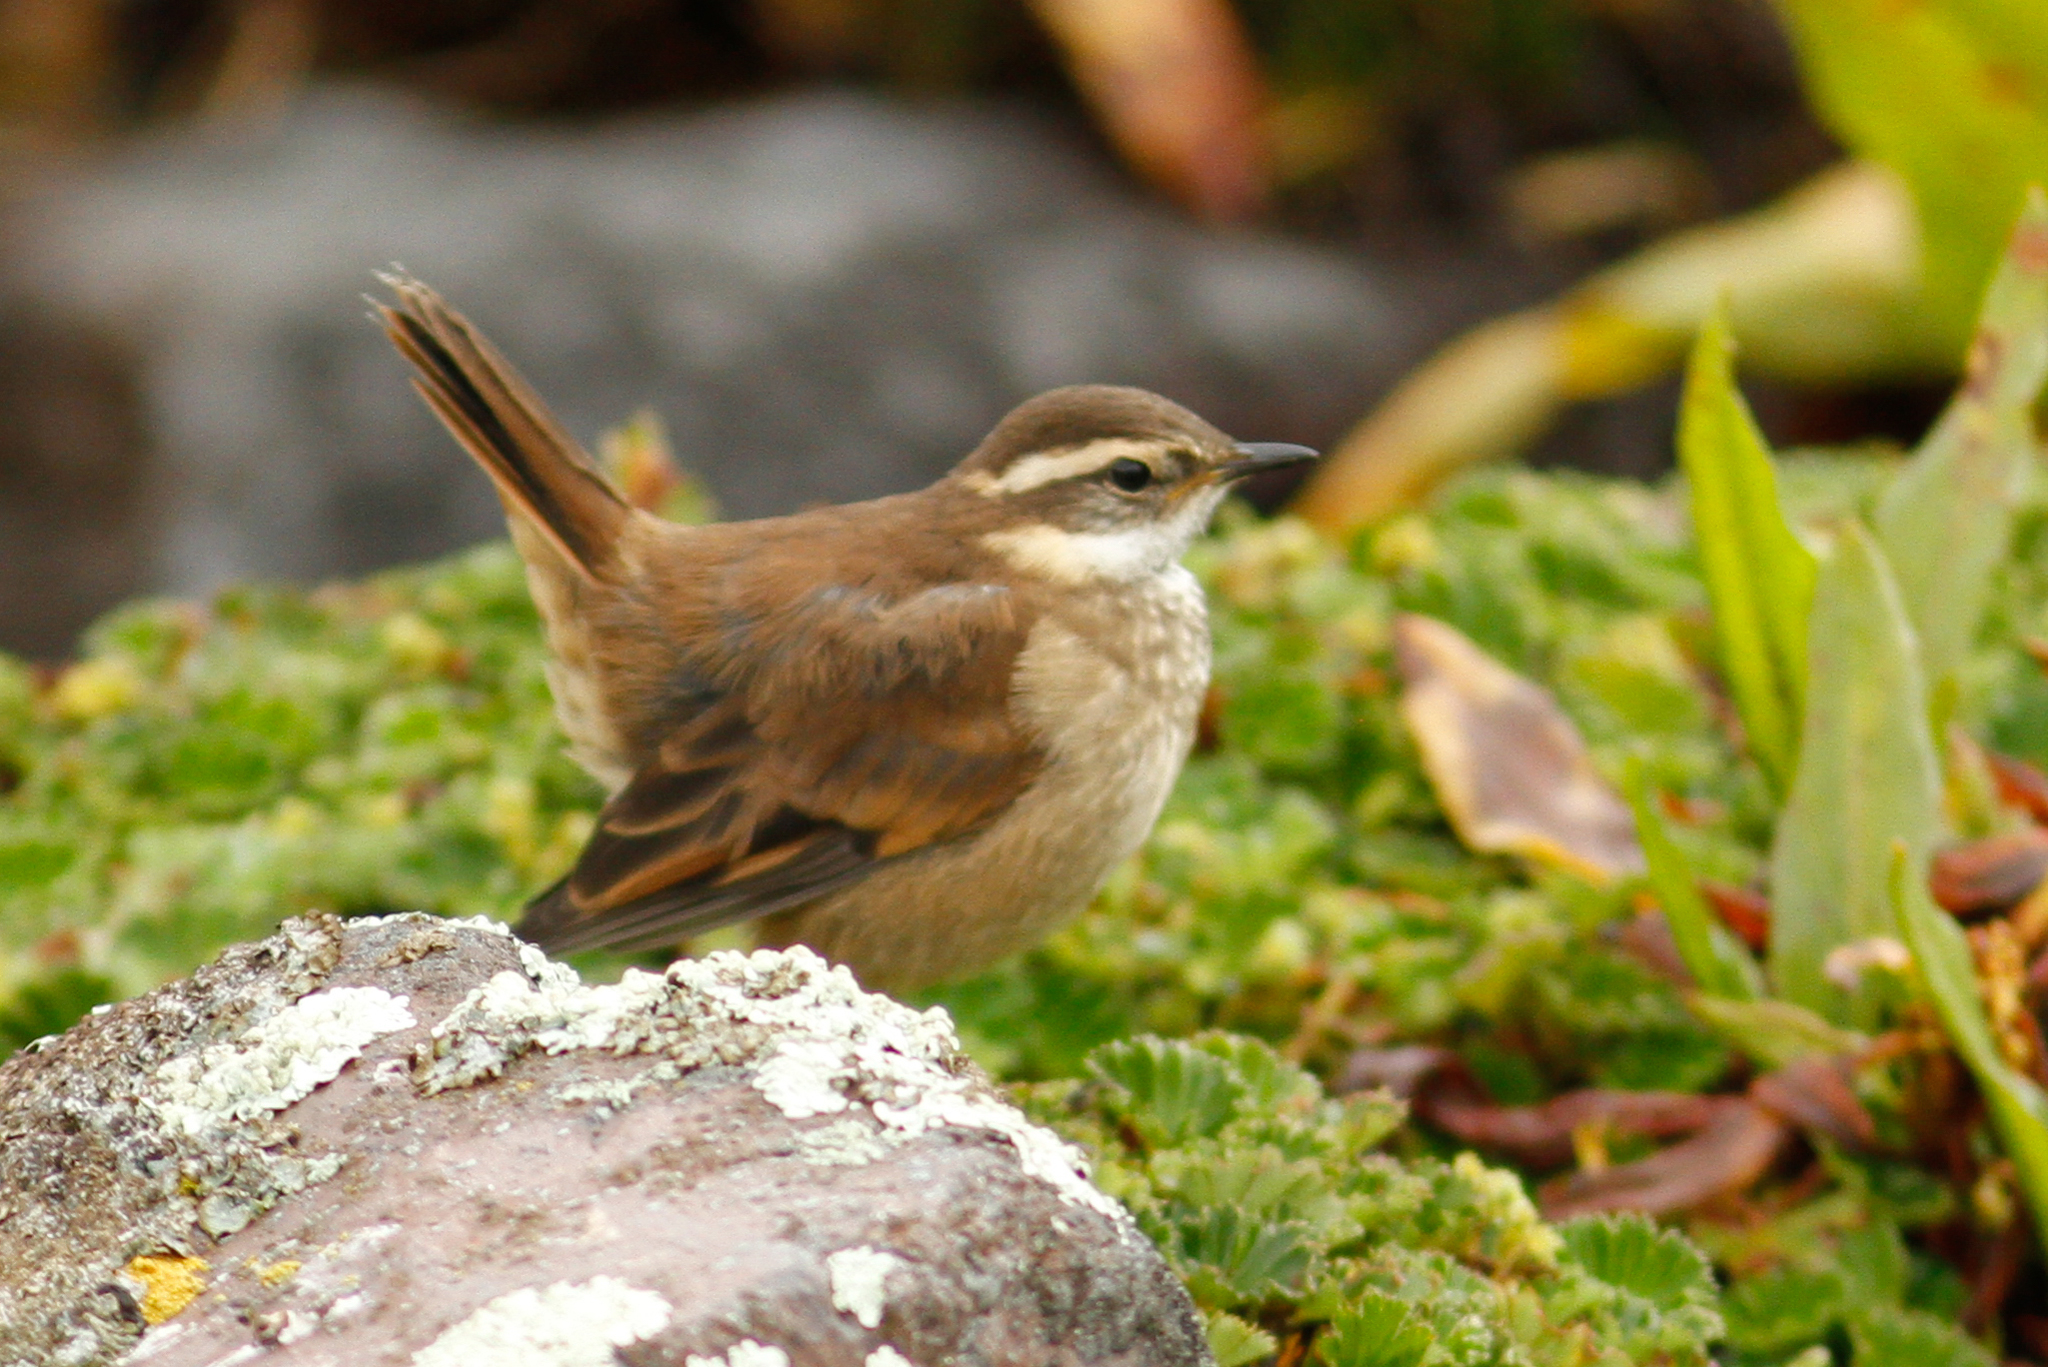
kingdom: Animalia
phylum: Chordata
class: Aves
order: Passeriformes
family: Furnariidae
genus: Cinclodes
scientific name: Cinclodes albidiventris
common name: Chestnut-winged cinclodes
